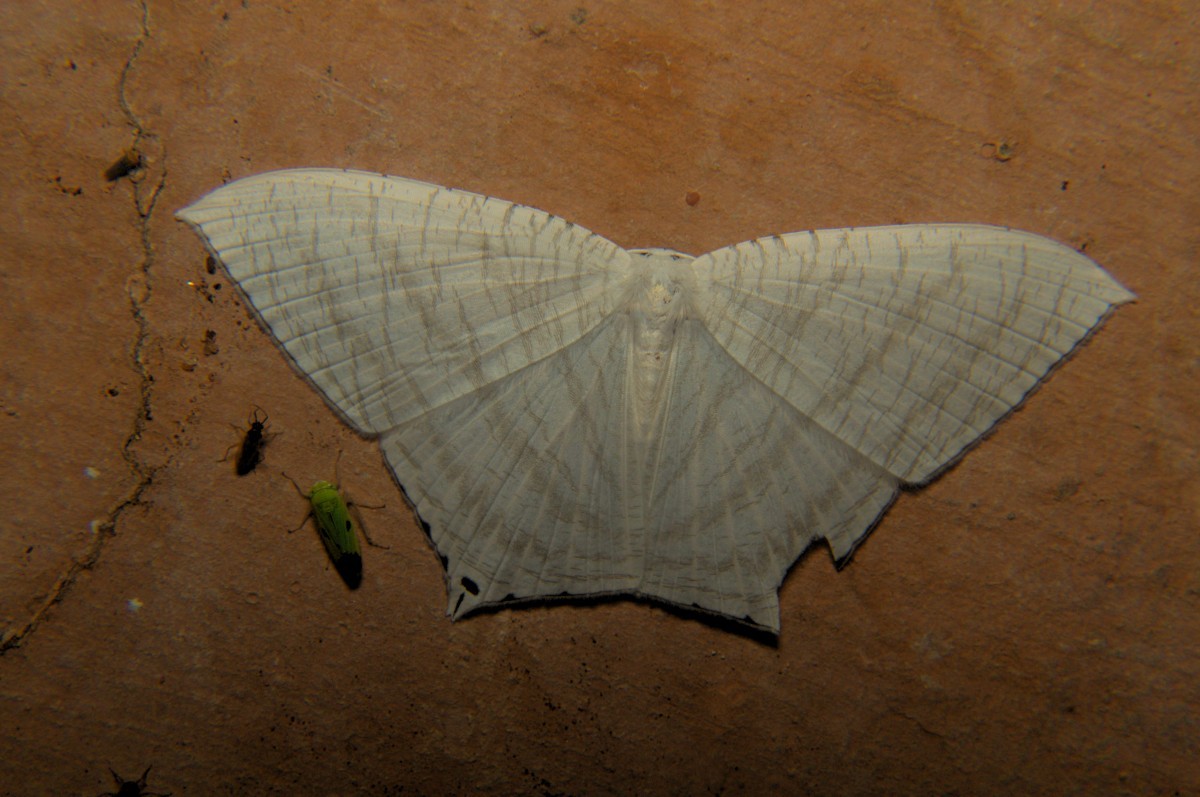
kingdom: Animalia
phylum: Arthropoda
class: Insecta
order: Lepidoptera
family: Uraniidae
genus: Micronia
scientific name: Micronia aculeata
